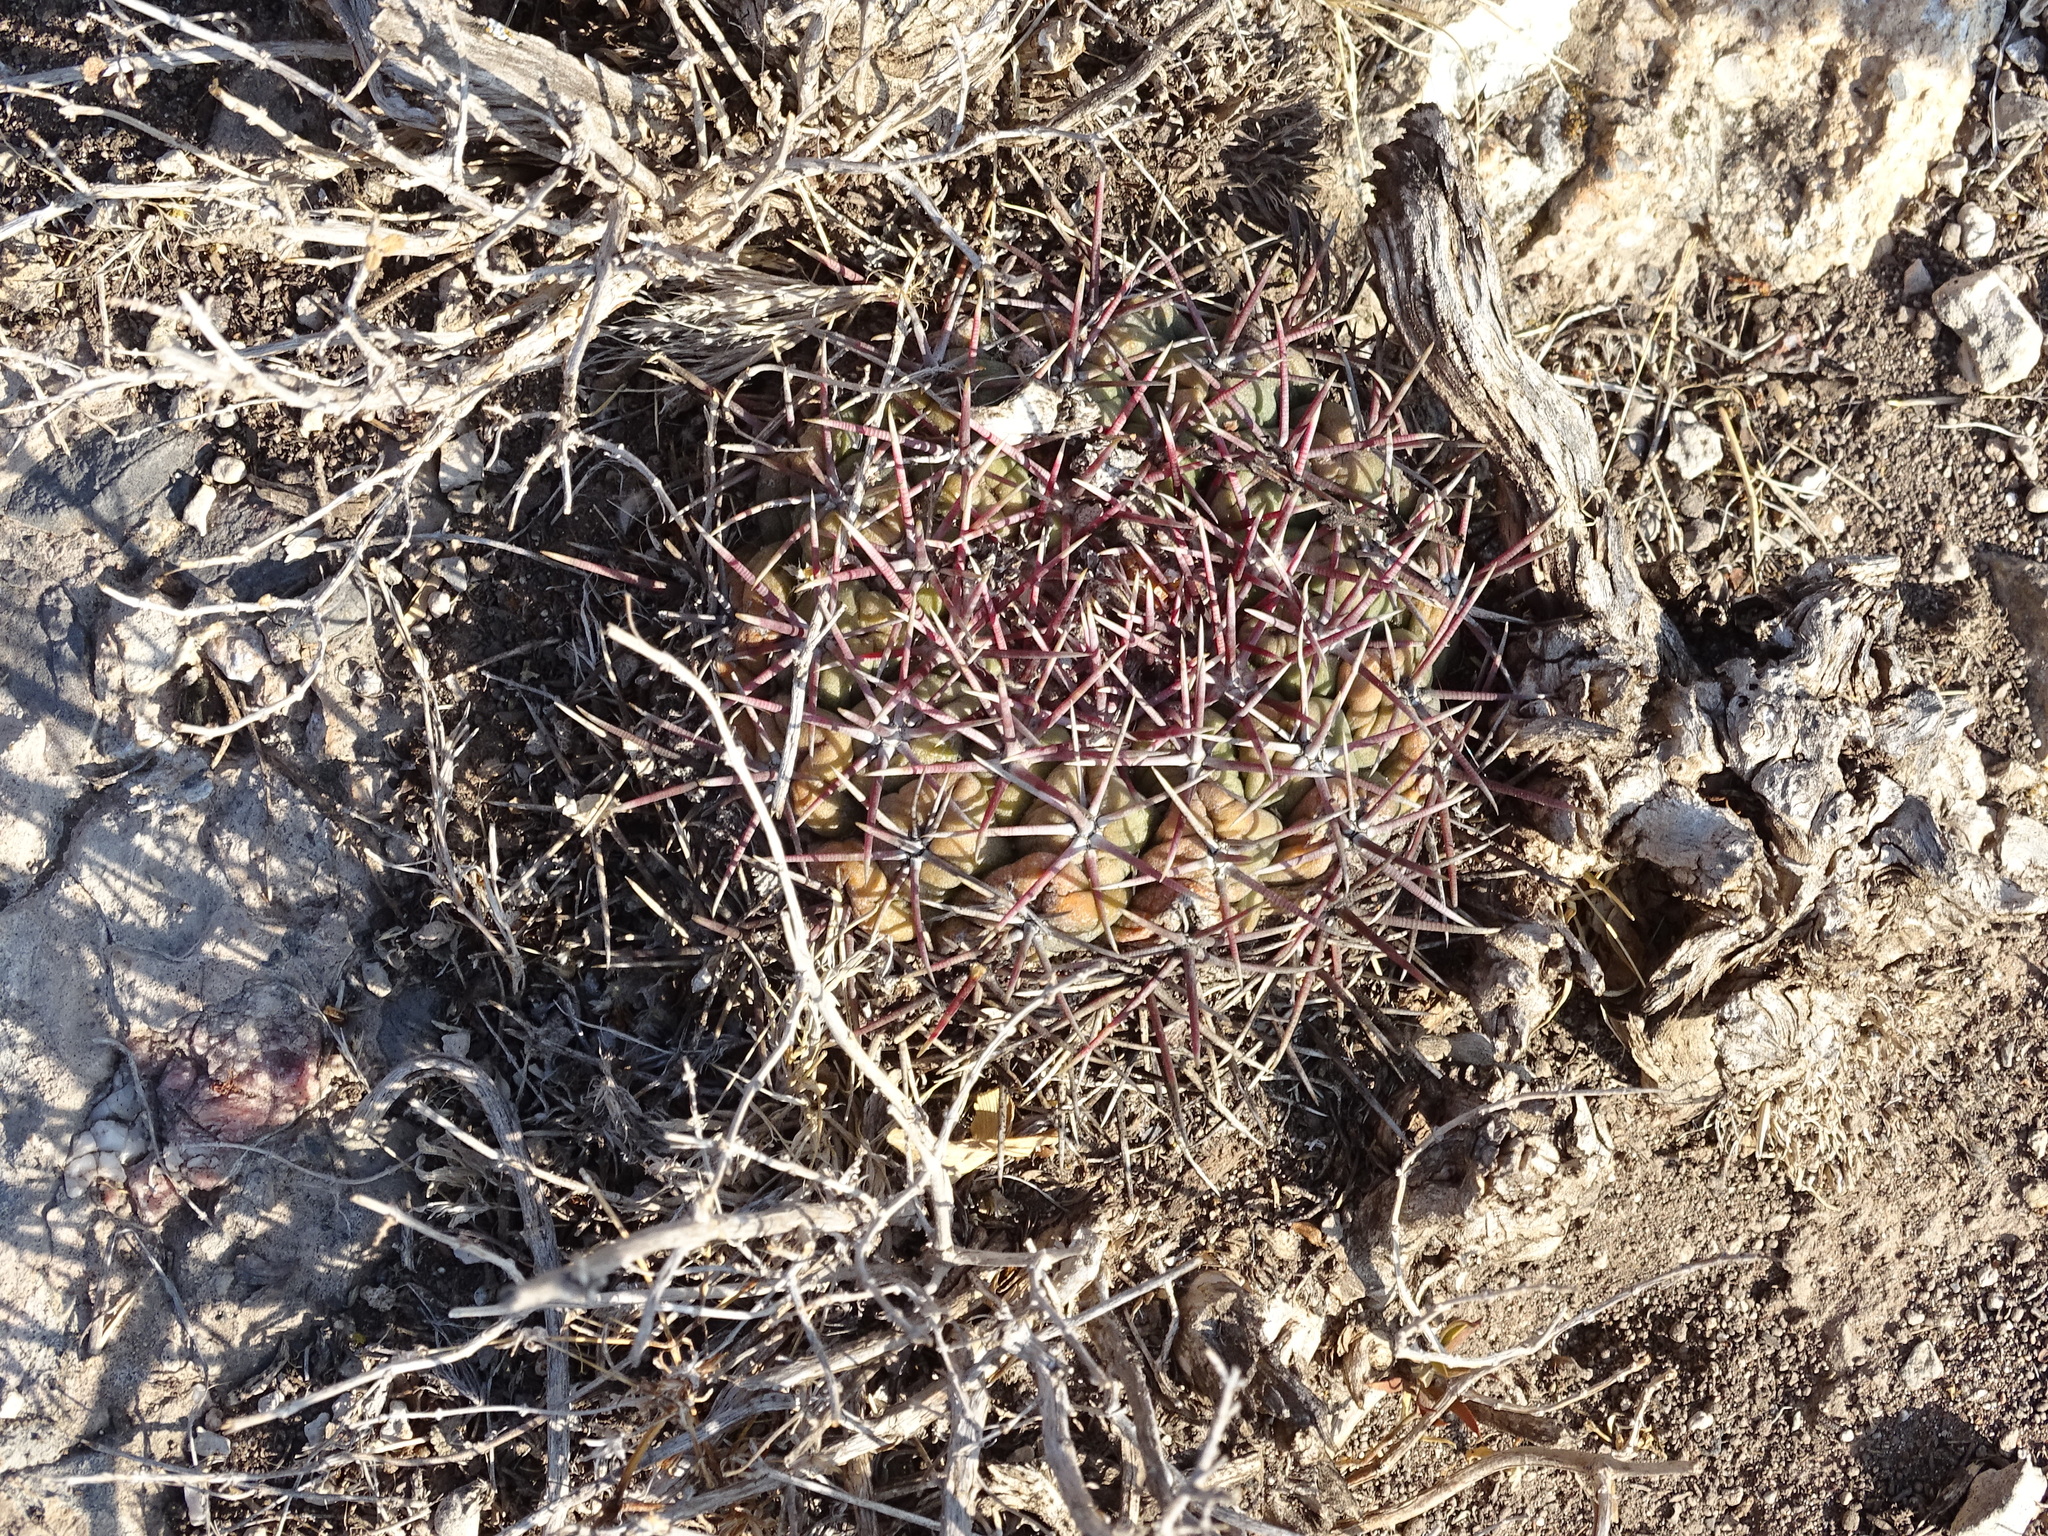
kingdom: Plantae
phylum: Tracheophyta
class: Magnoliopsida
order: Caryophyllales
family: Cactaceae
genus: Thelocactus
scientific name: Thelocactus hexaedrophorus
